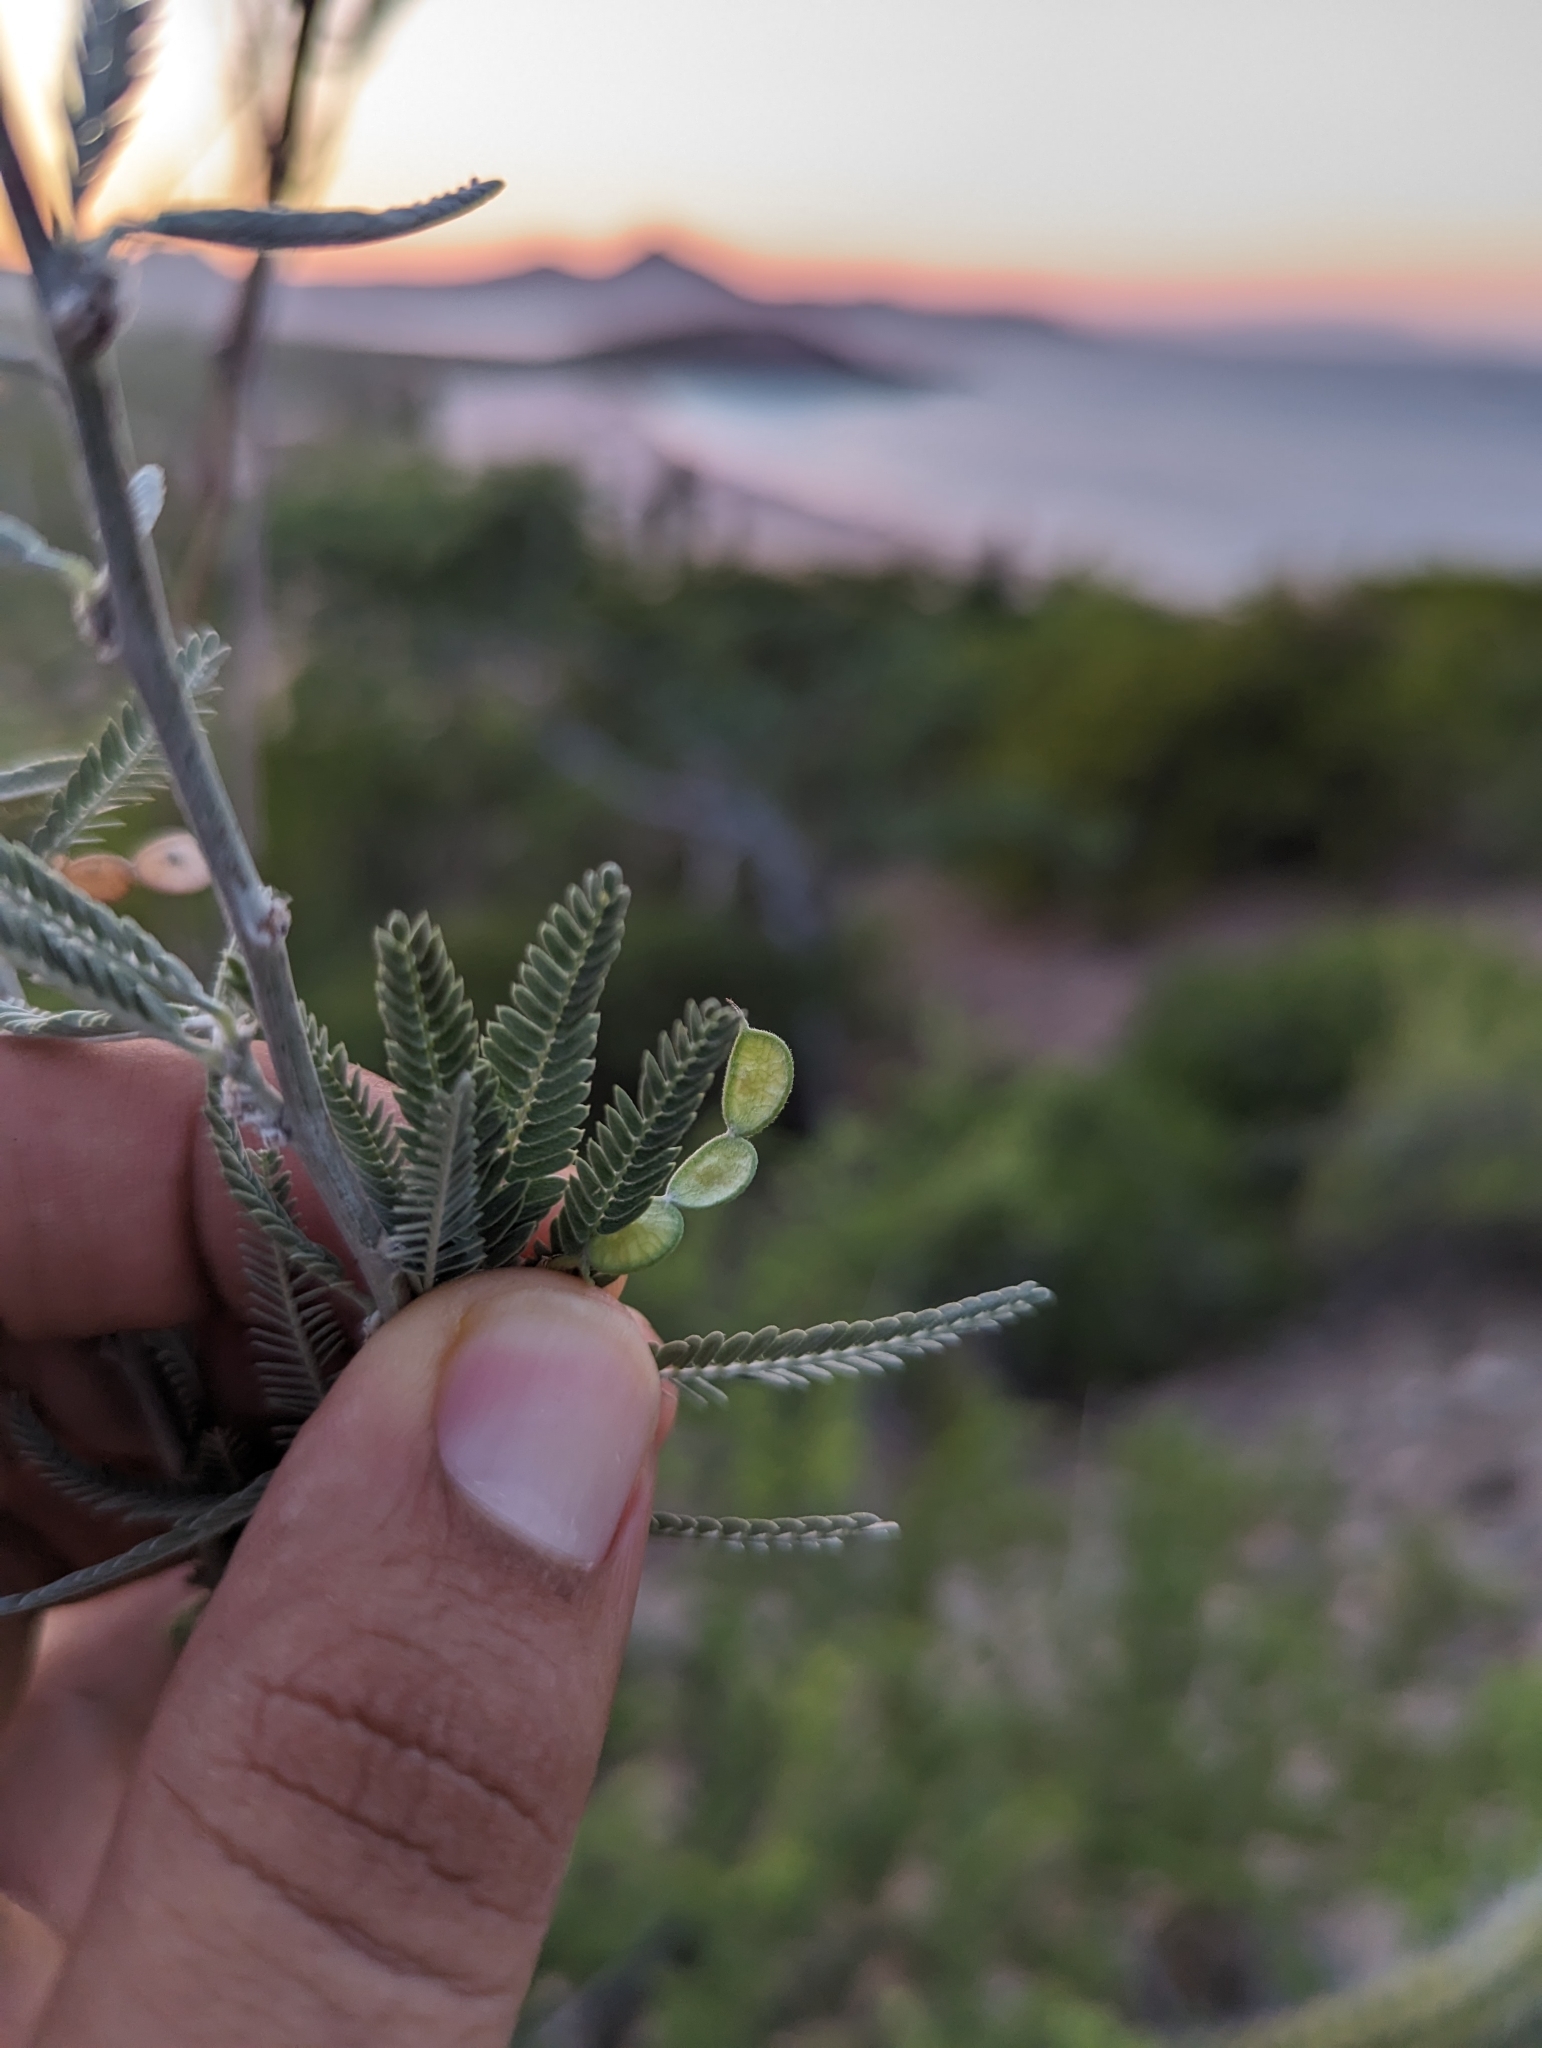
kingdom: Plantae
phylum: Tracheophyta
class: Magnoliopsida
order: Fabales
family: Fabaceae
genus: Ctenodon
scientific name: Ctenodon niveus
